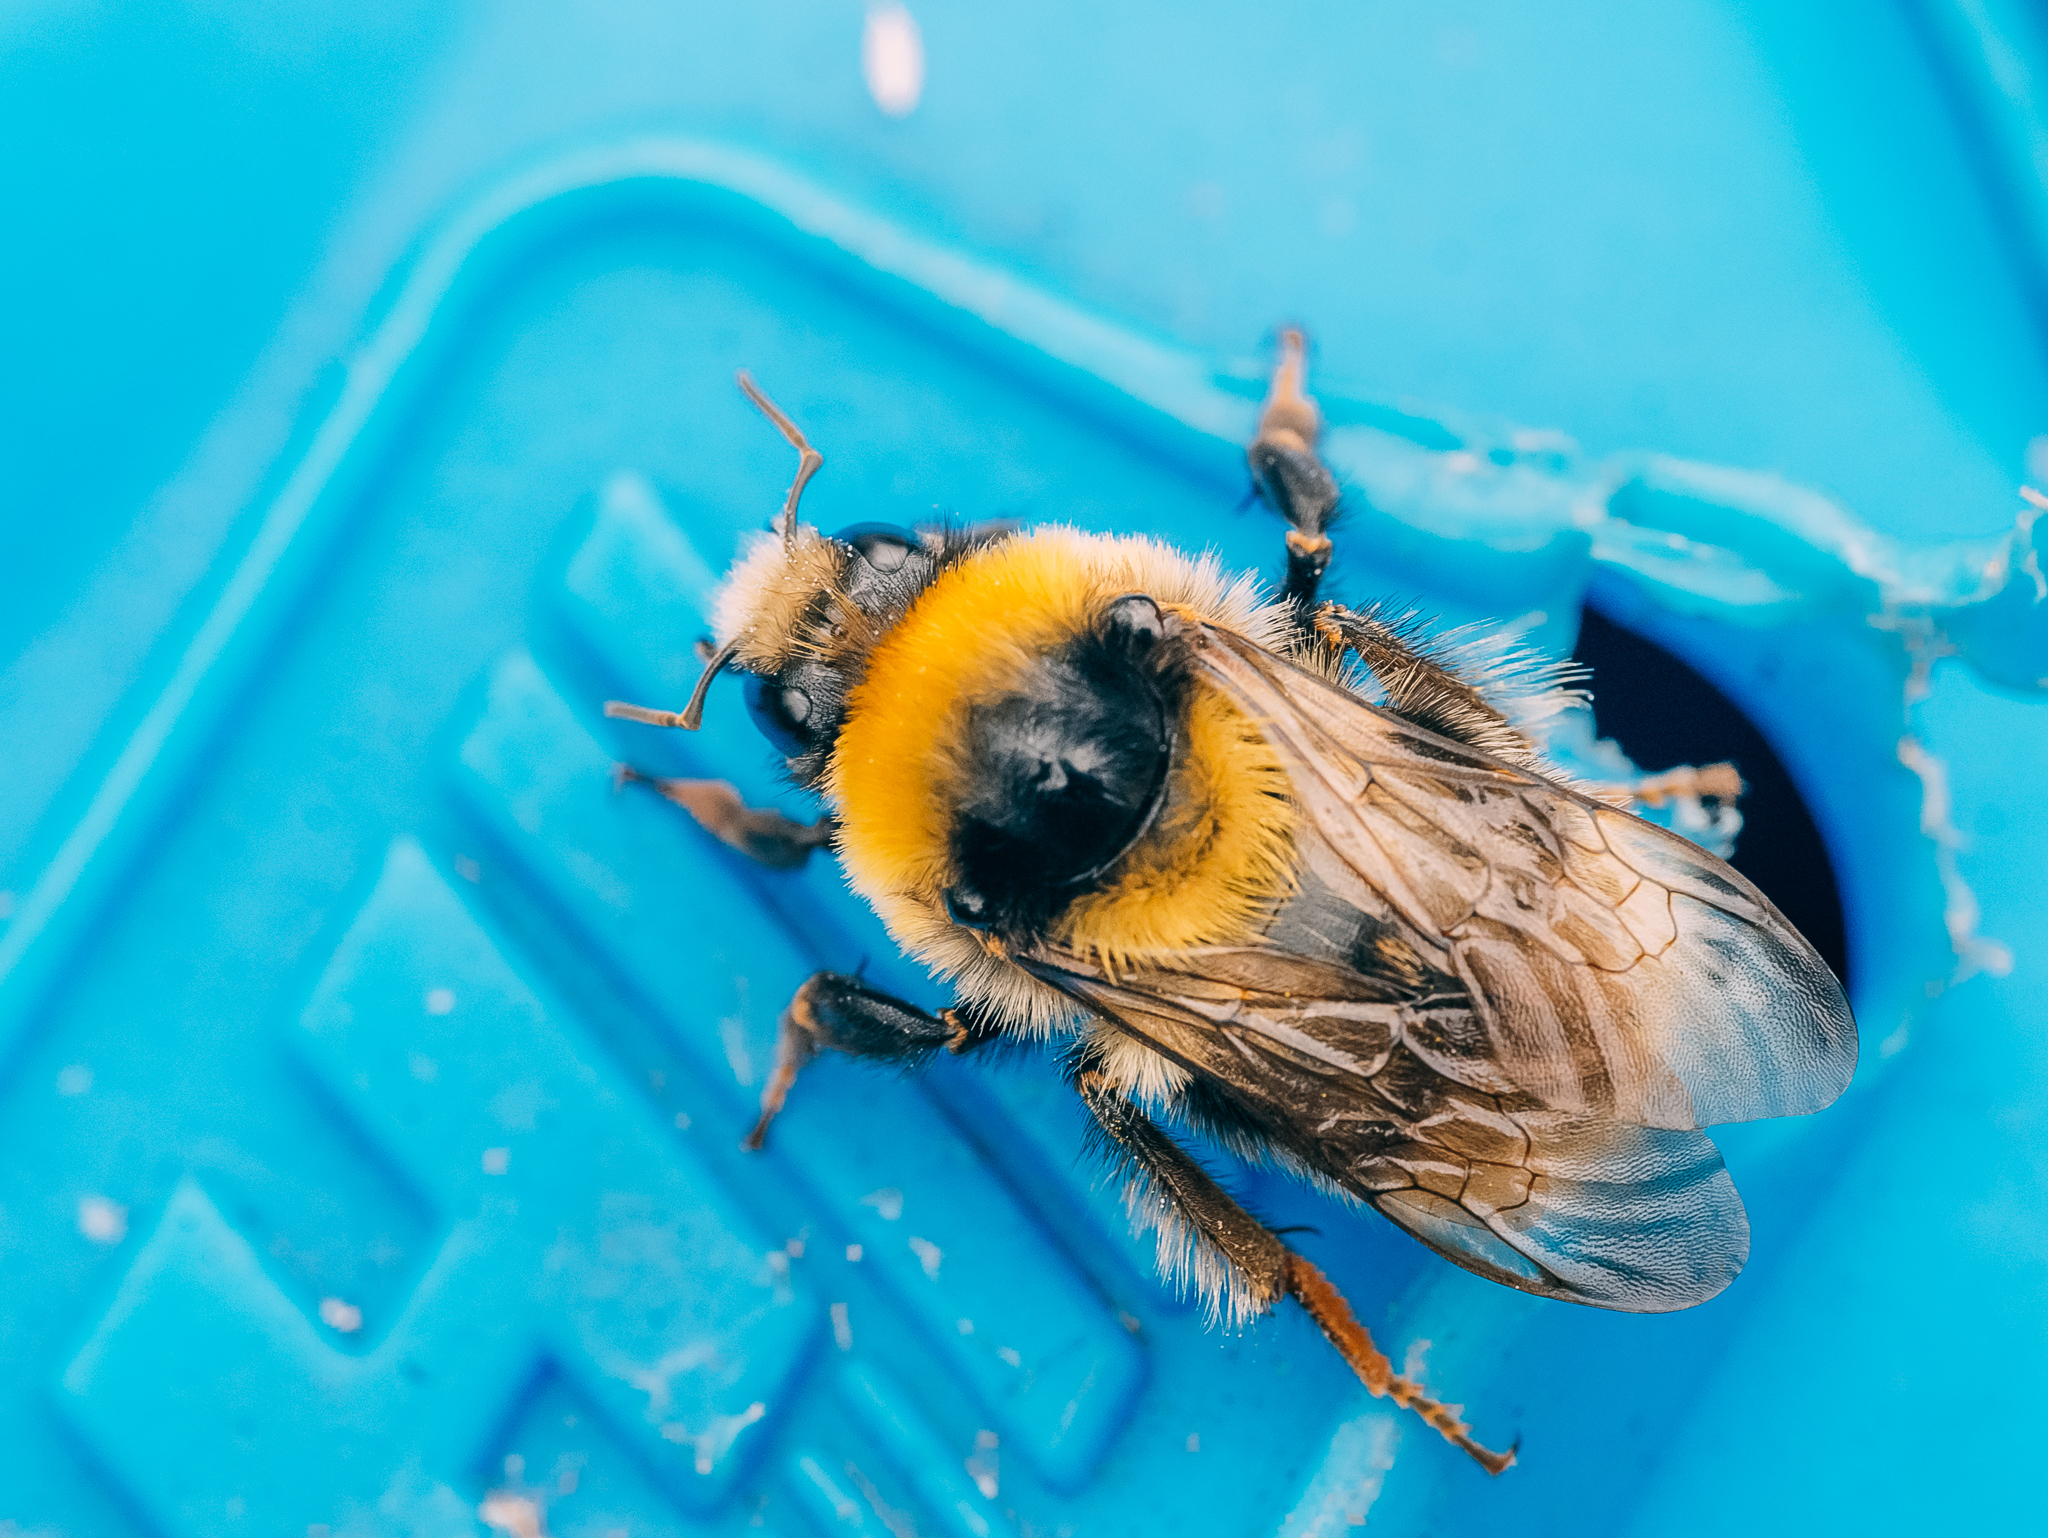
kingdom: Animalia
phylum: Arthropoda
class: Insecta
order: Hymenoptera
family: Apidae
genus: Bombus
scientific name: Bombus semenoviellus
